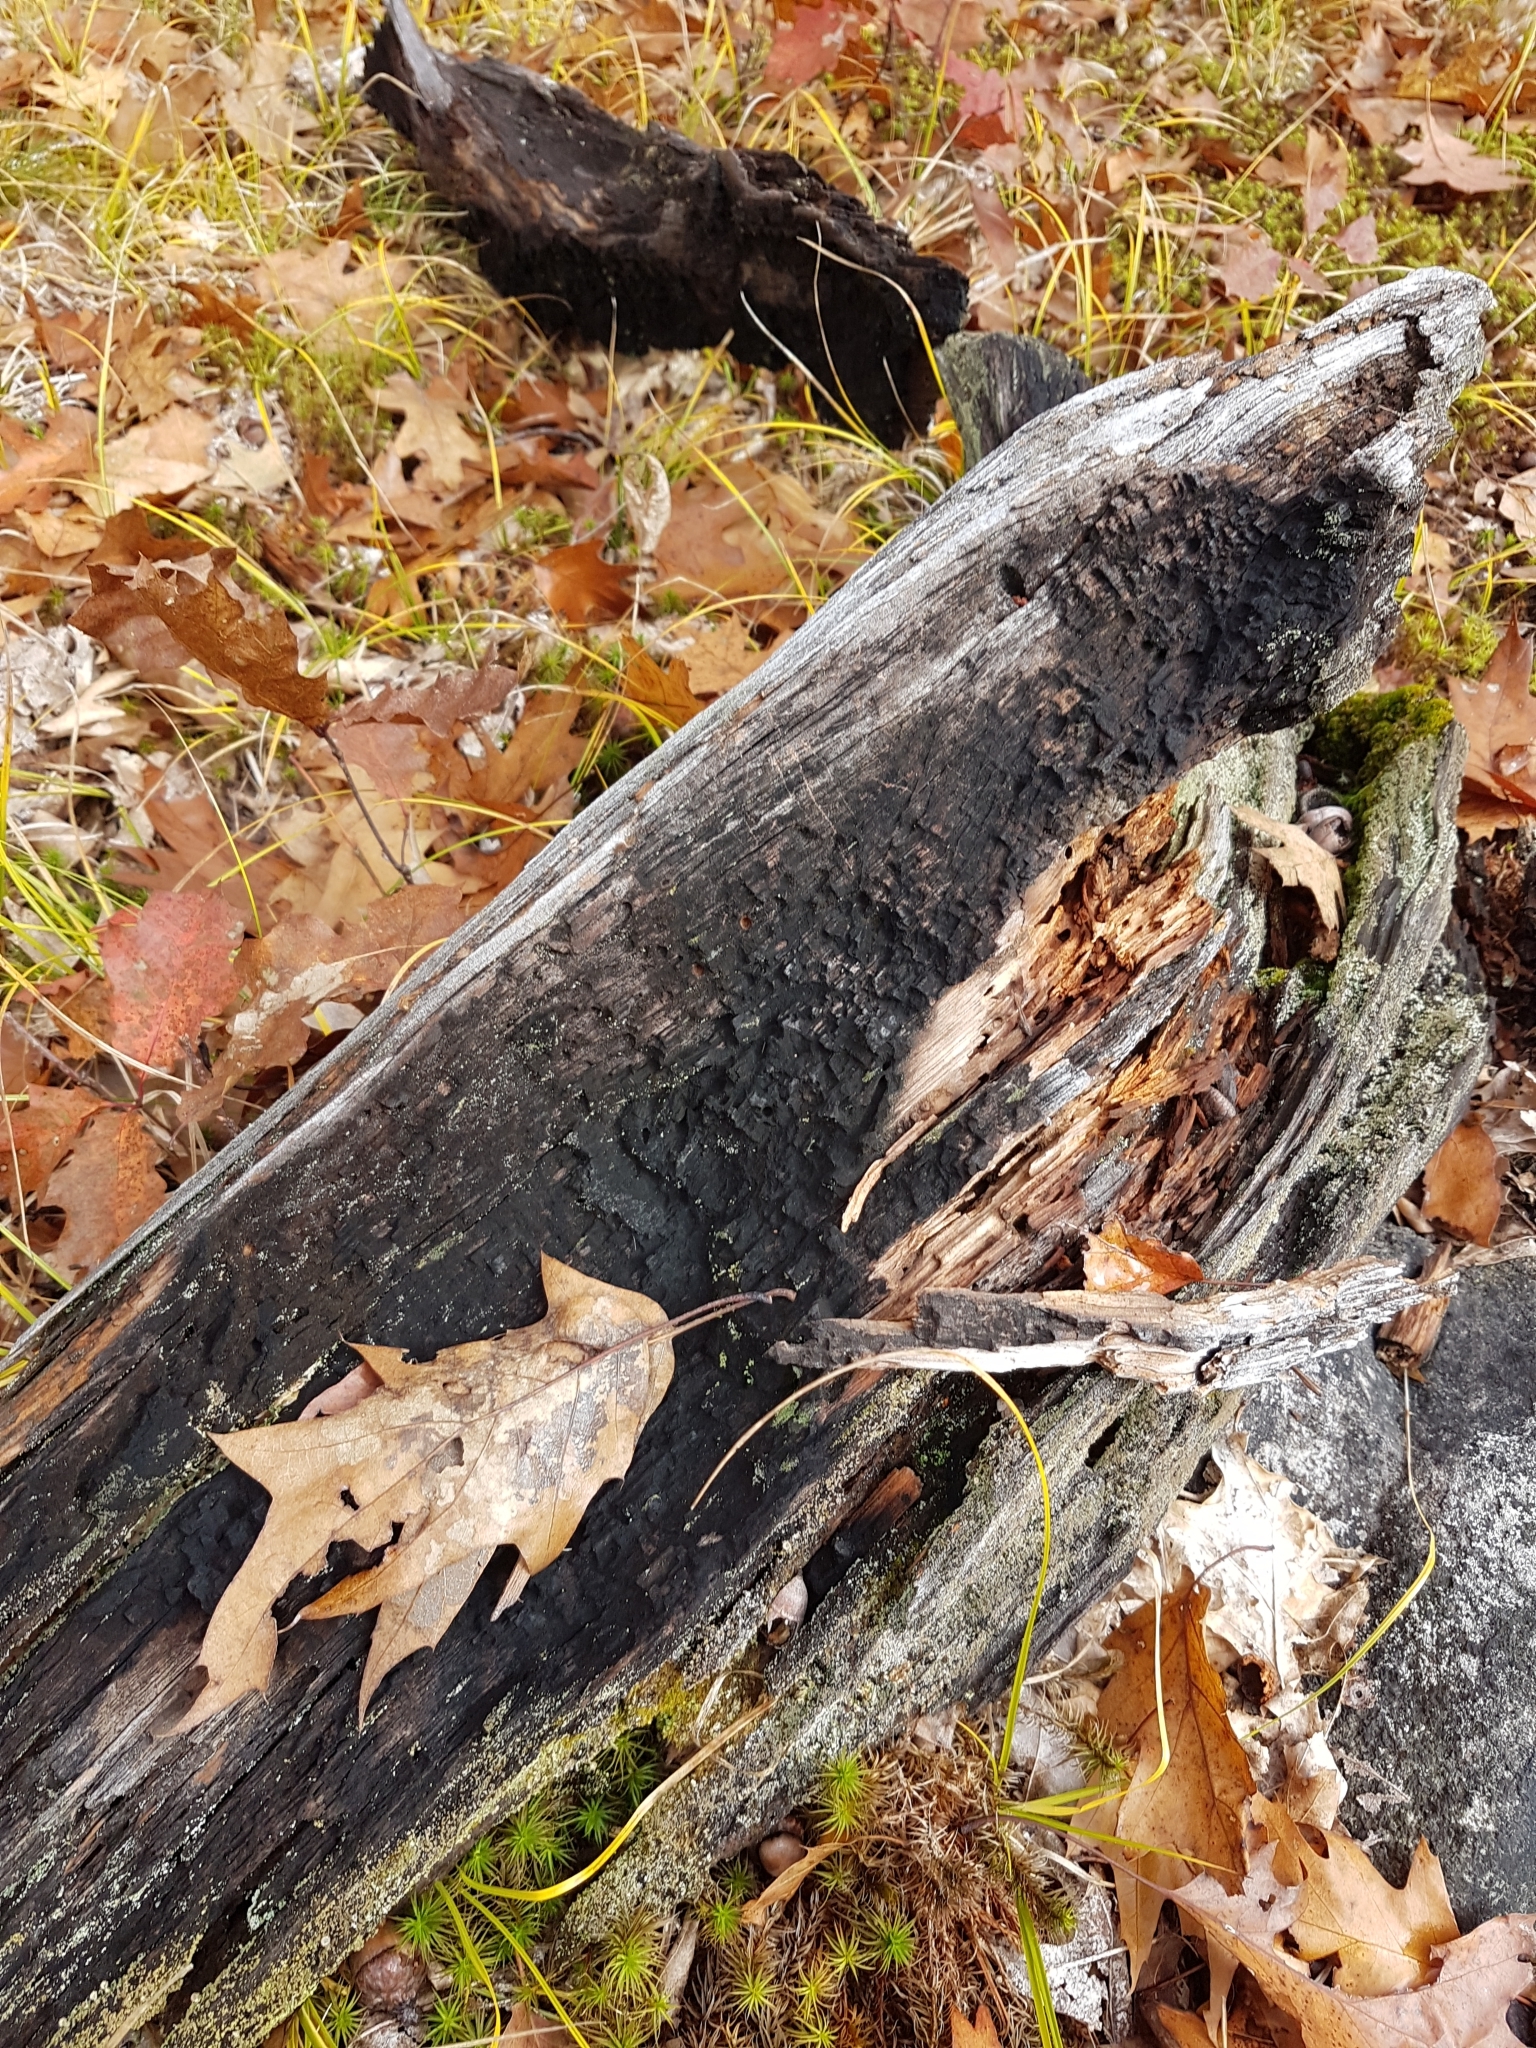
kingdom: Plantae
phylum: Tracheophyta
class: Magnoliopsida
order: Fagales
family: Fagaceae
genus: Quercus
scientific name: Quercus rubra
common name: Red oak
